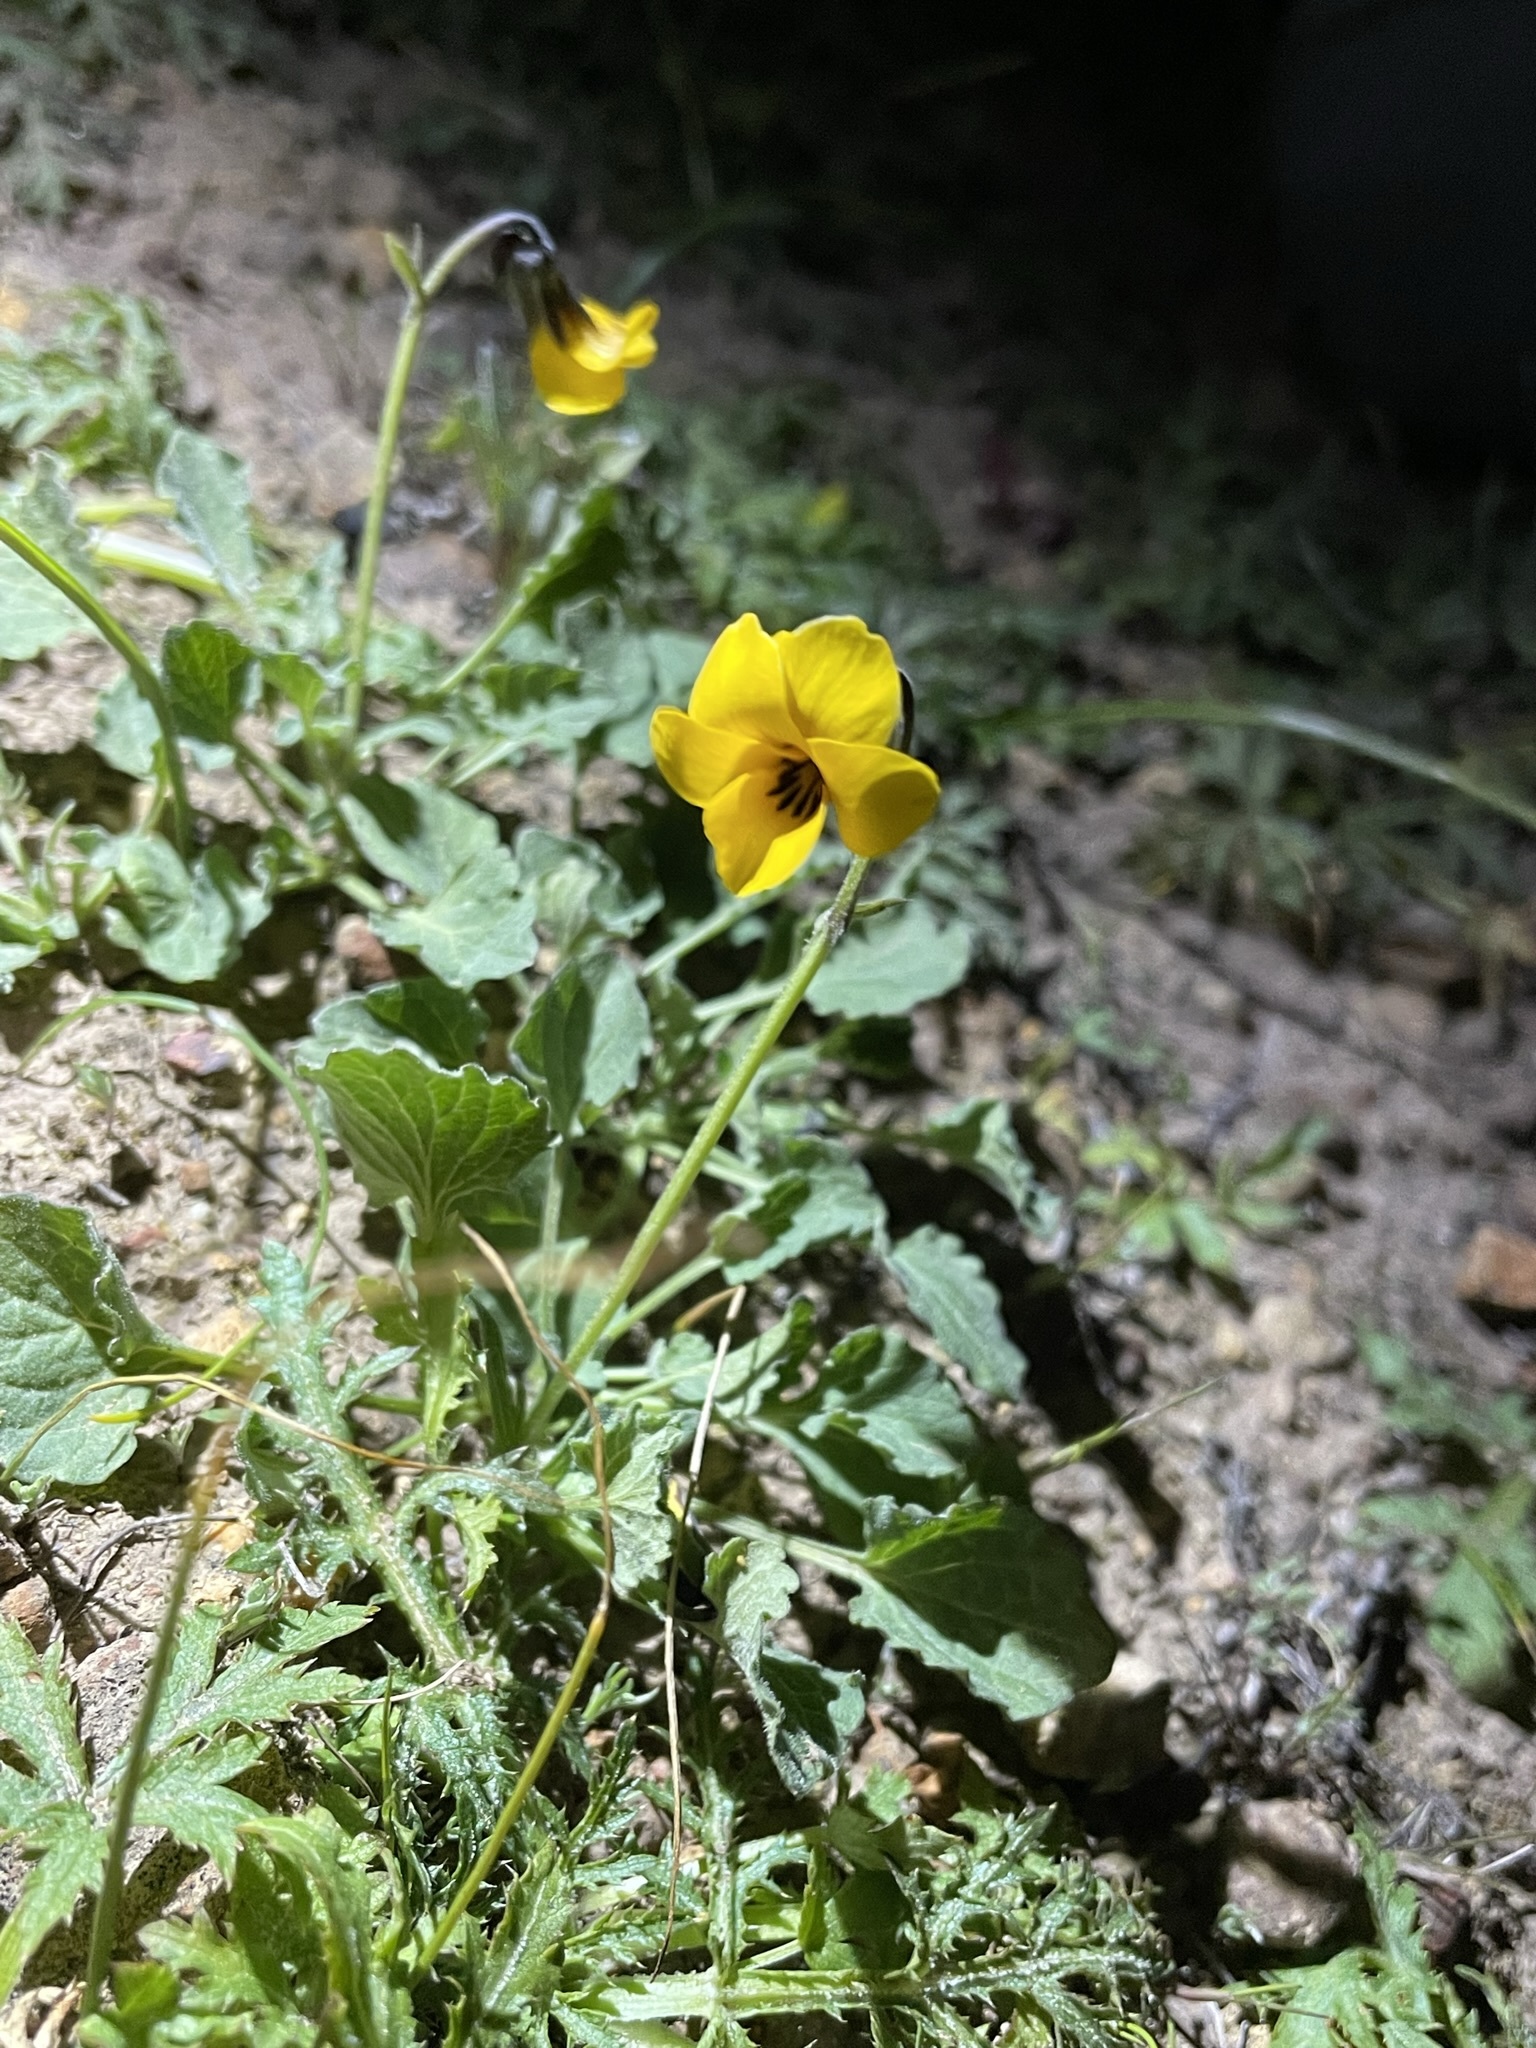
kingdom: Plantae
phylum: Tracheophyta
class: Magnoliopsida
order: Malpighiales
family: Violaceae
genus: Viola
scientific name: Viola pedunculata
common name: California golden violet
